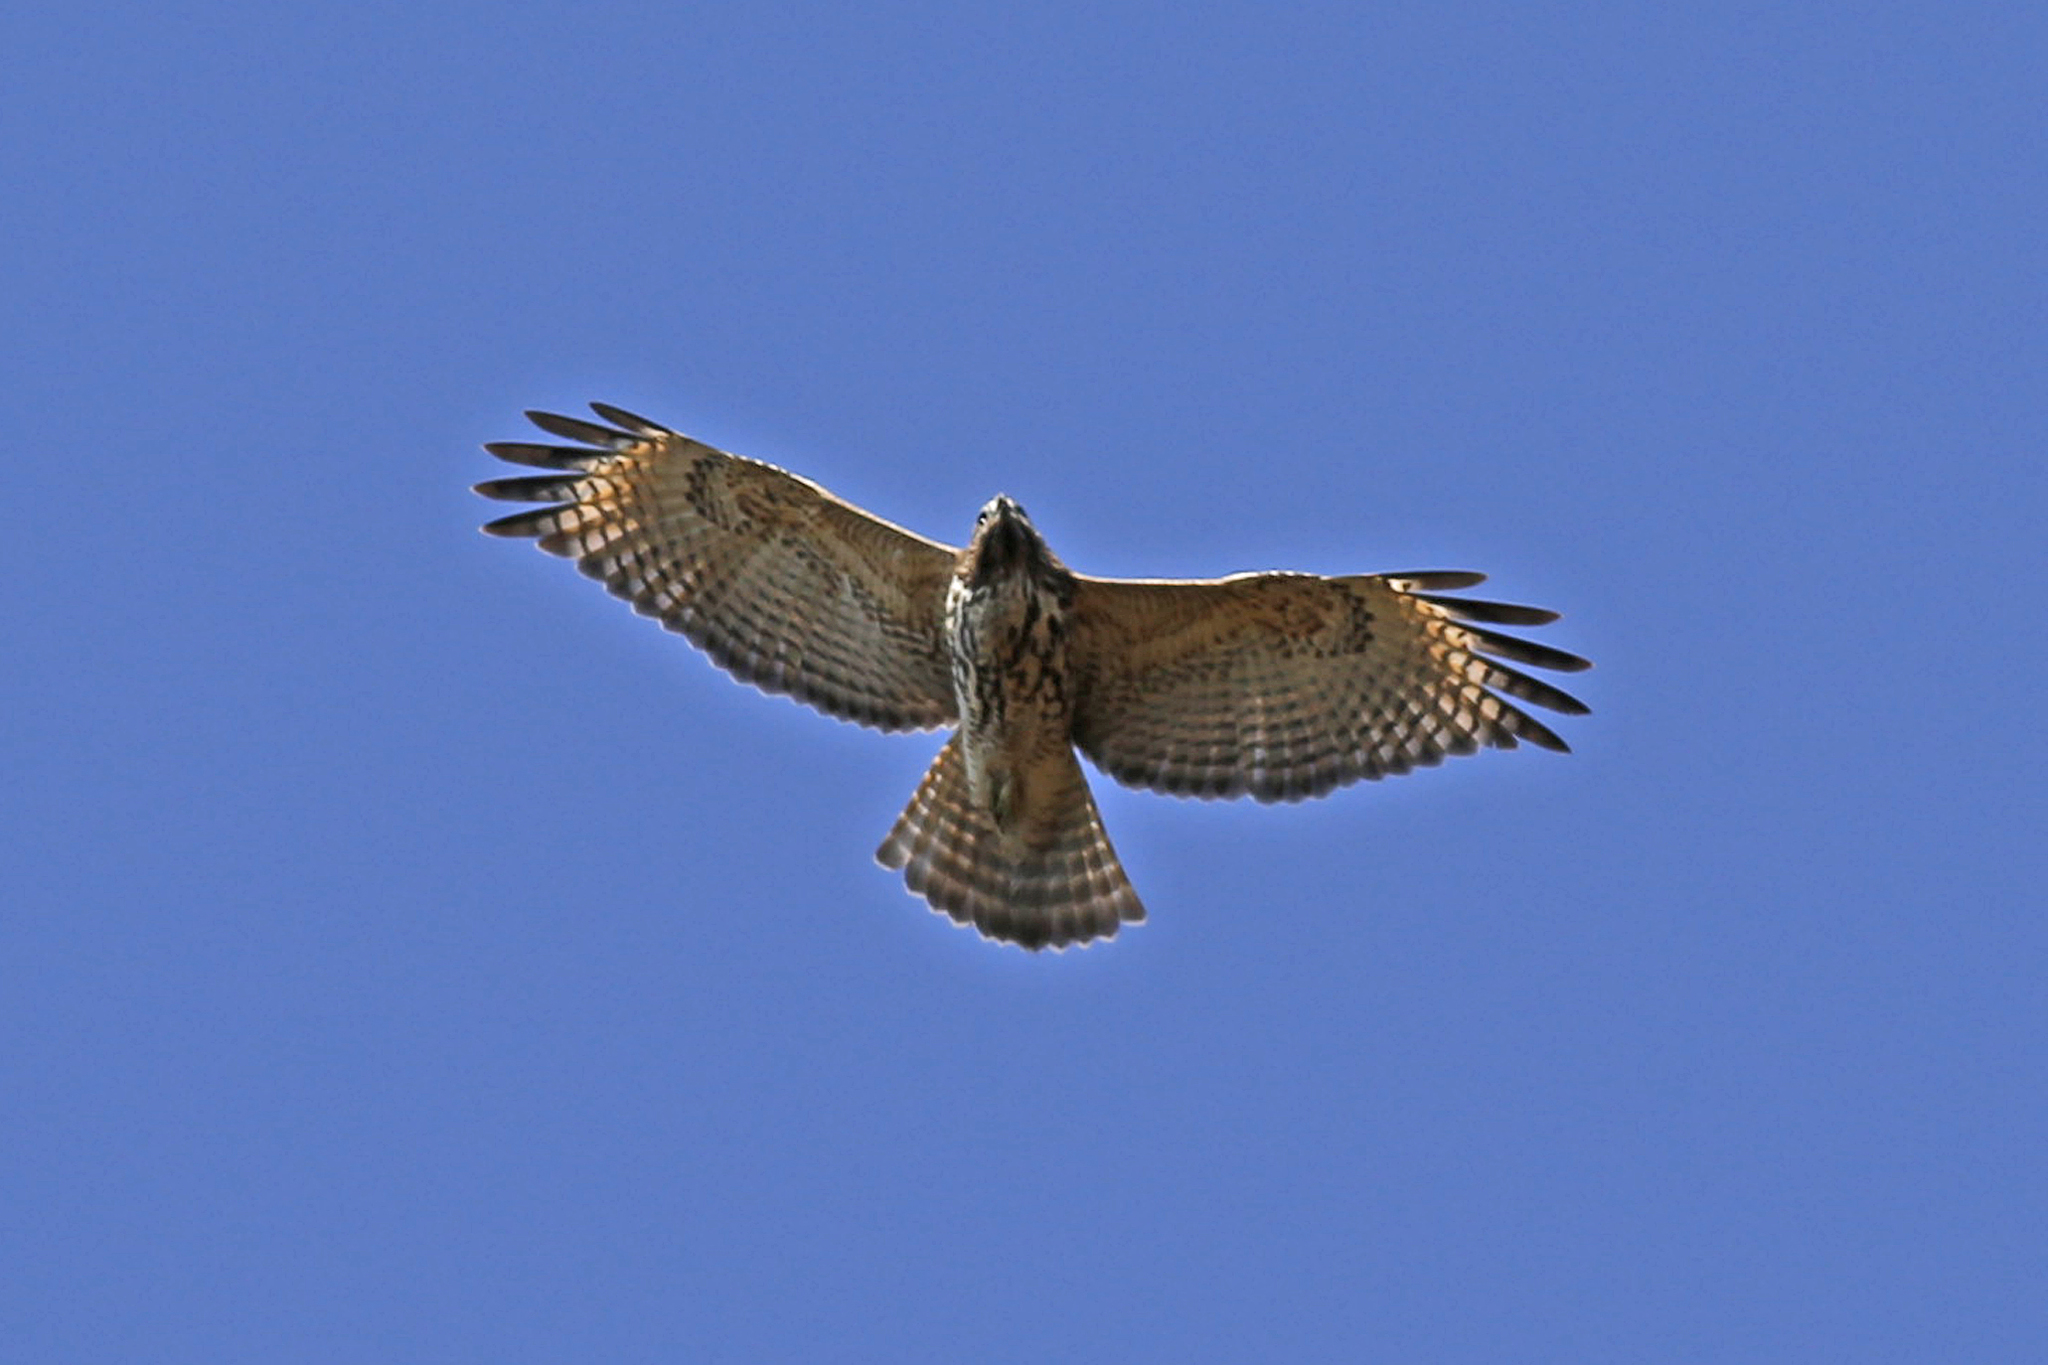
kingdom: Animalia
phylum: Chordata
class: Aves
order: Accipitriformes
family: Accipitridae
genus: Buteo
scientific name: Buteo lineatus
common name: Red-shouldered hawk
